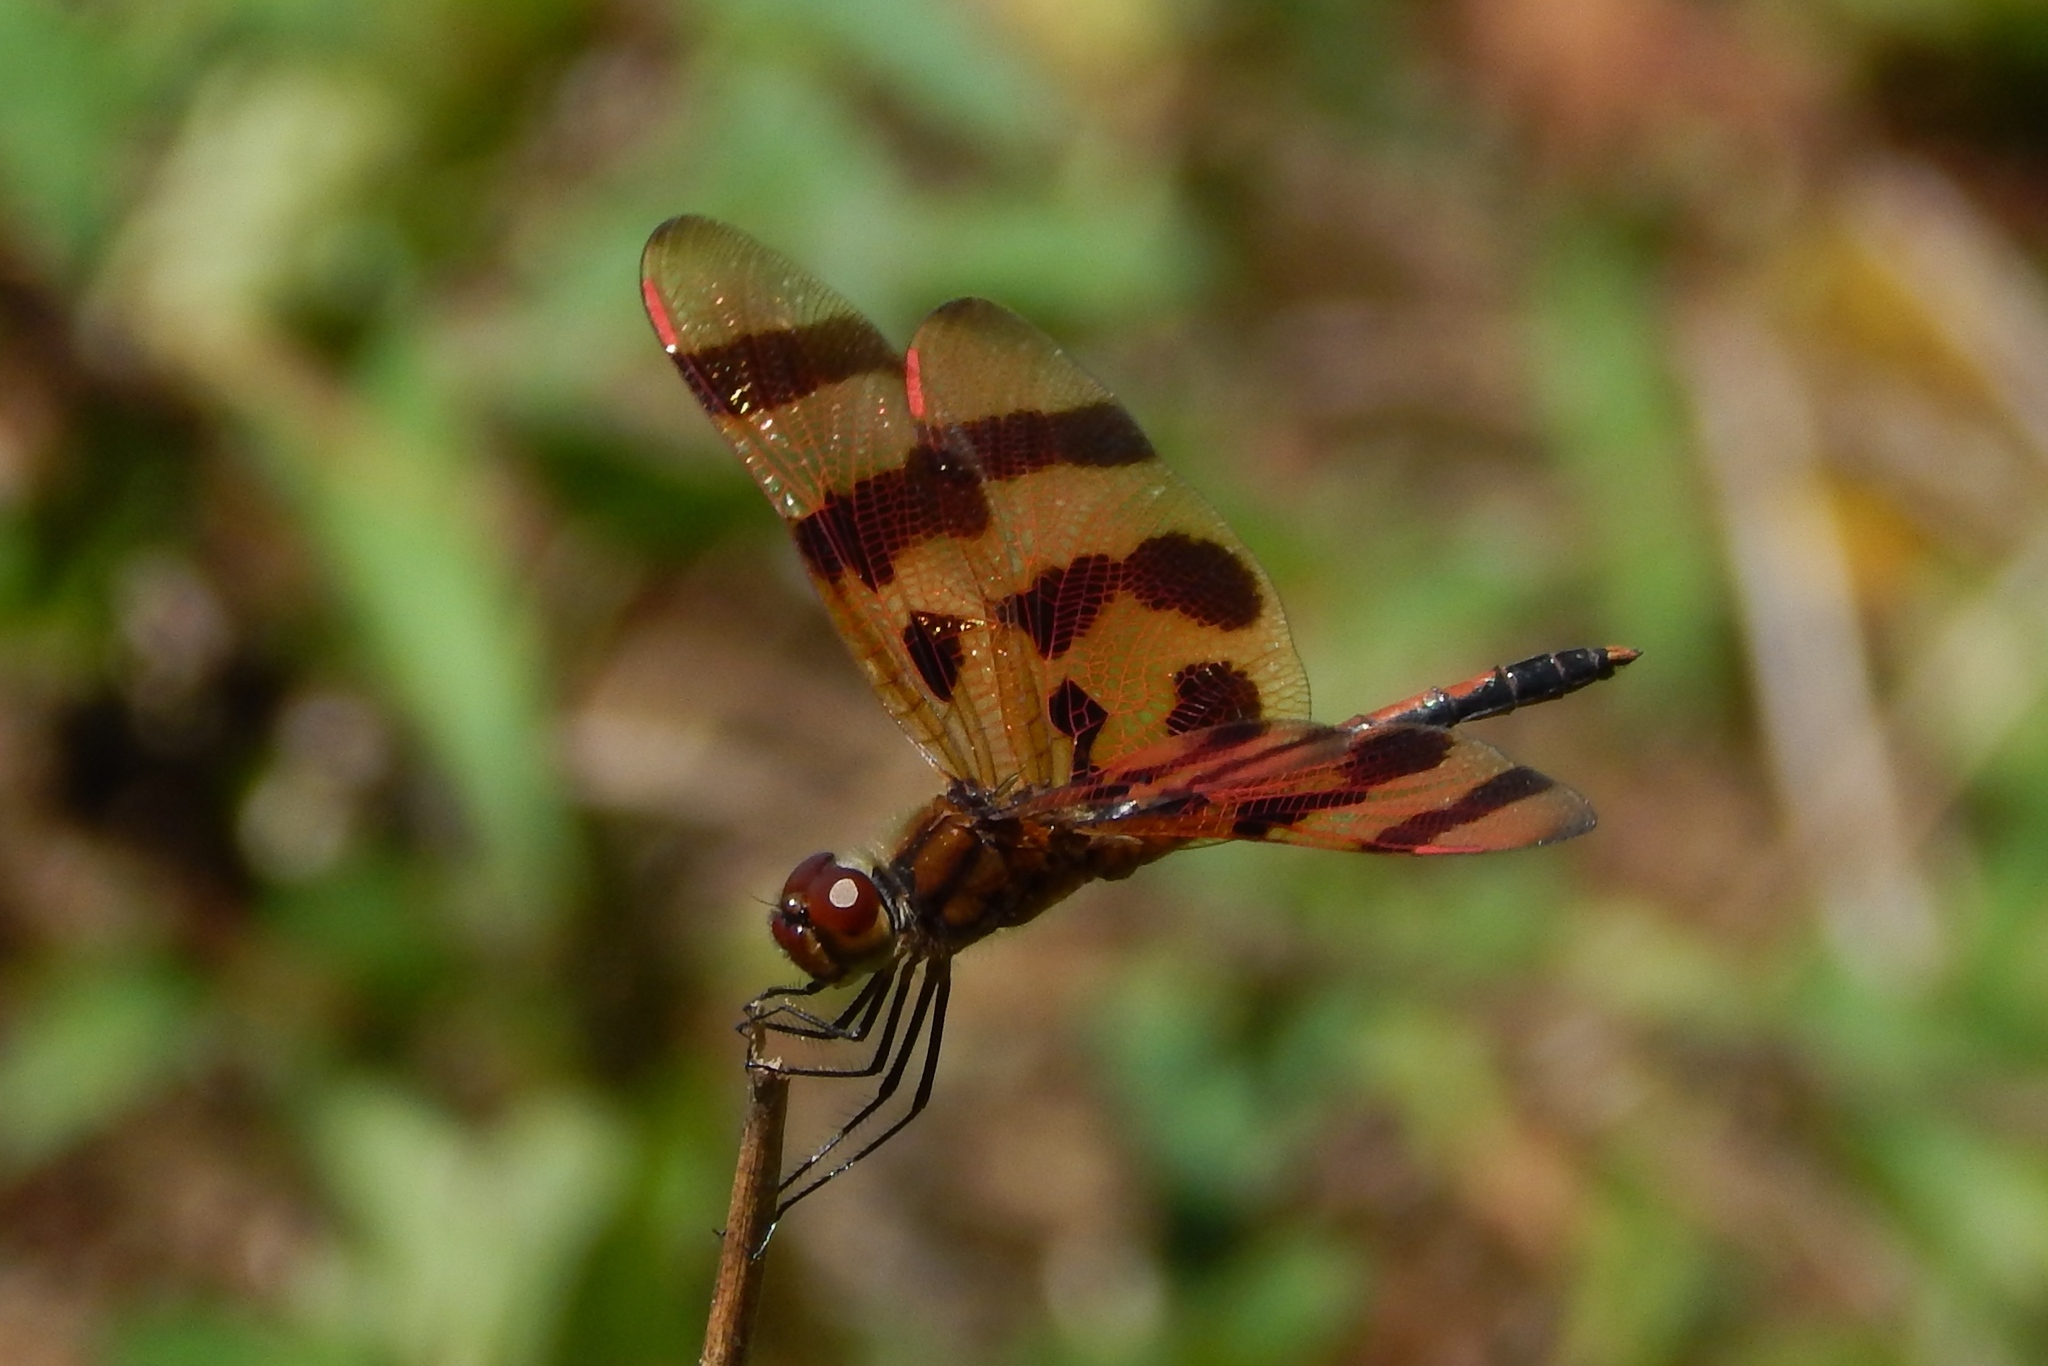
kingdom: Animalia
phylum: Arthropoda
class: Insecta
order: Odonata
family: Libellulidae
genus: Celithemis
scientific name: Celithemis eponina
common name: Halloween pennant
